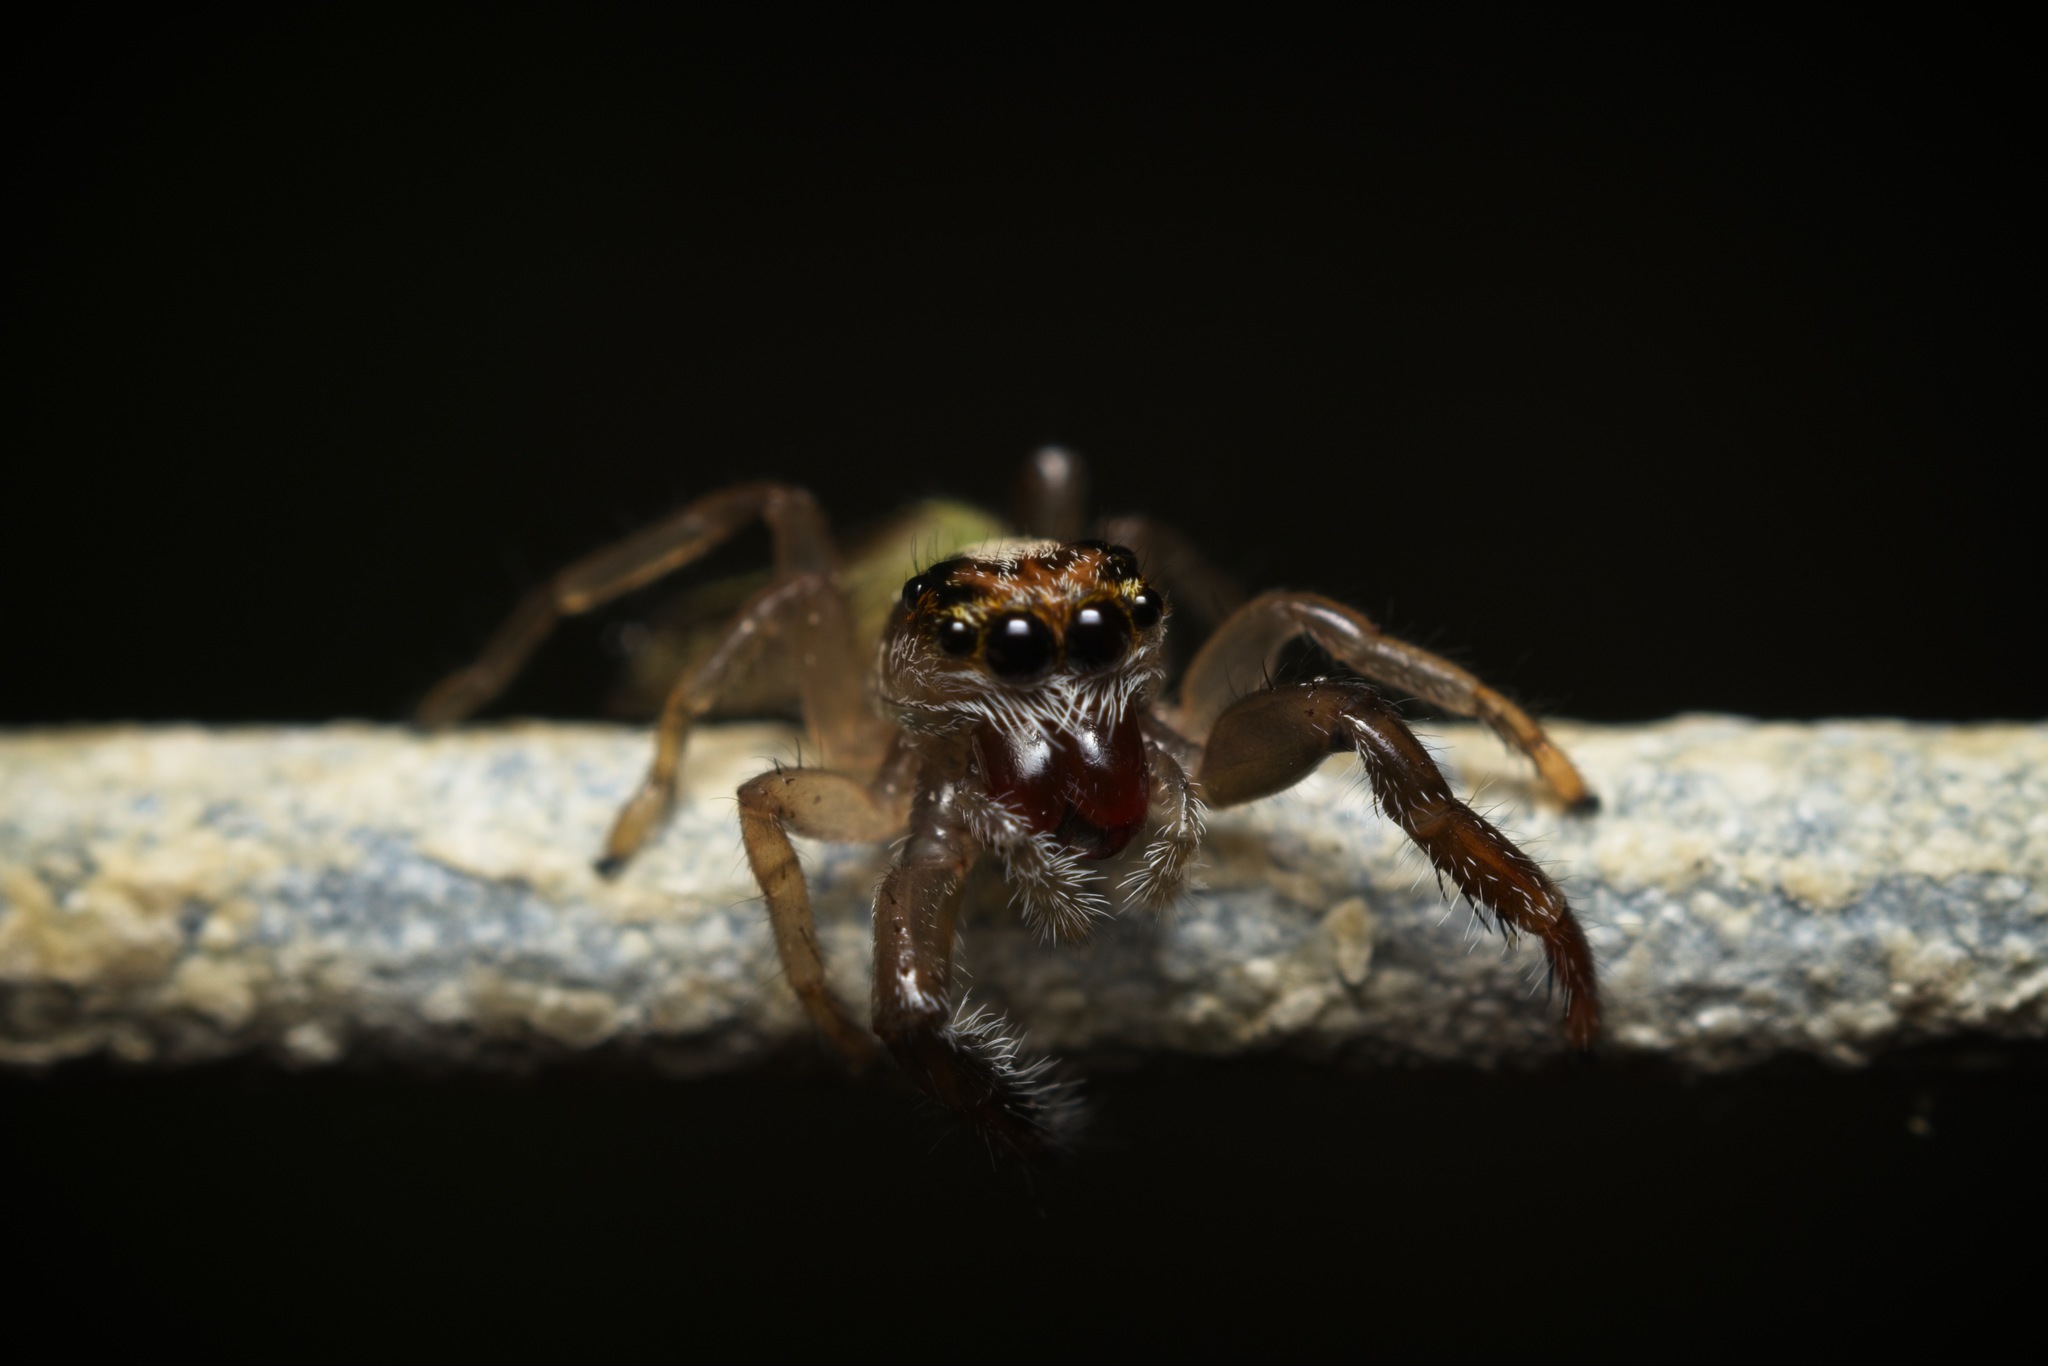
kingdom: Animalia
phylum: Arthropoda
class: Arachnida
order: Araneae
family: Salticidae
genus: Trite
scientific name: Trite planiceps
